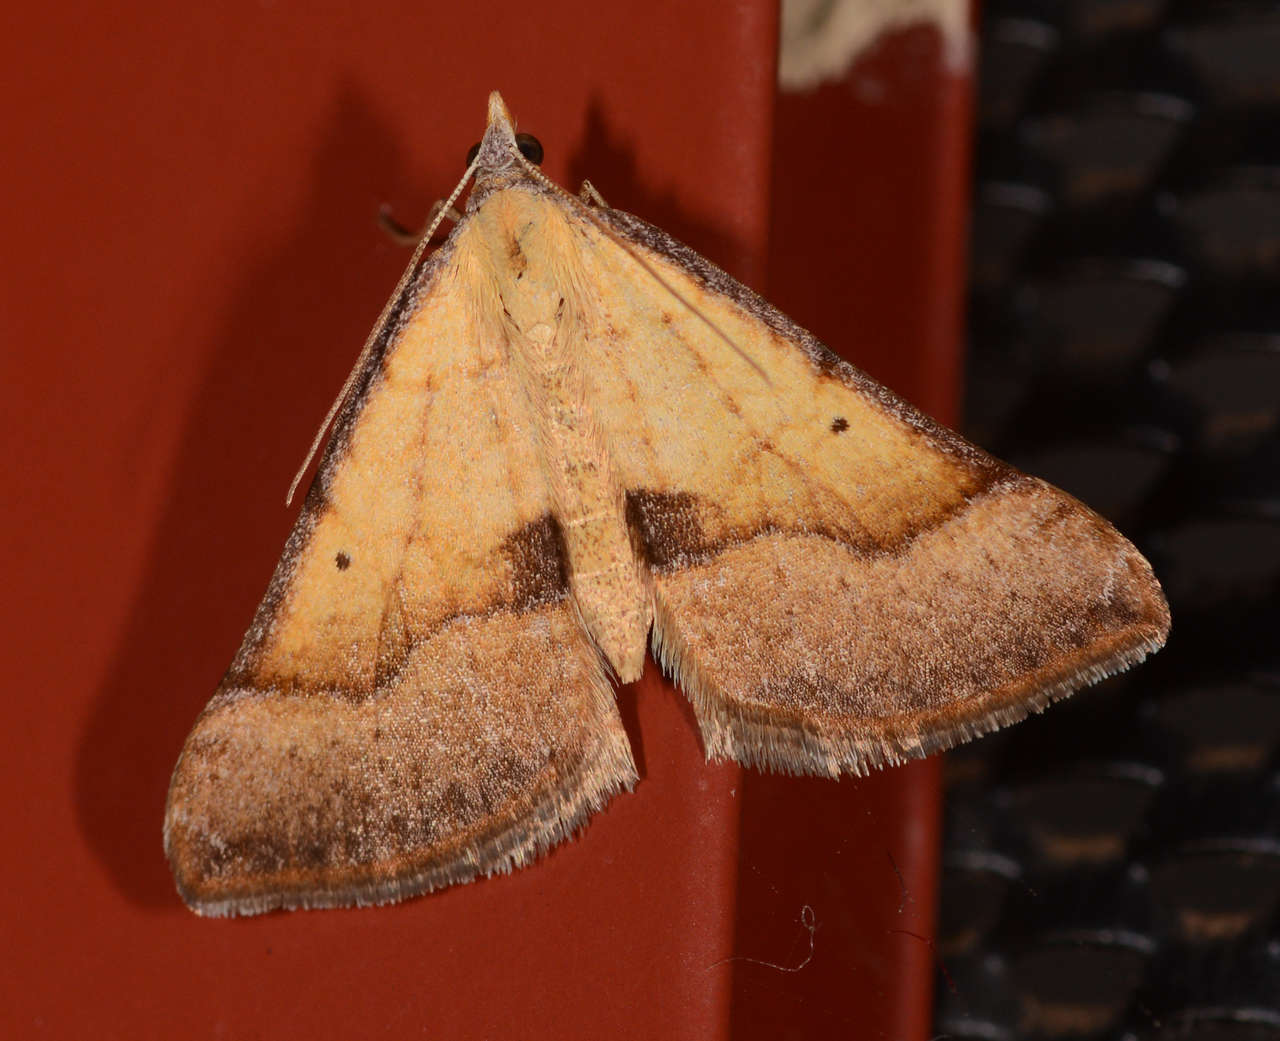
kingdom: Animalia
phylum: Arthropoda
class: Insecta
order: Lepidoptera
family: Geometridae
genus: Anachloris
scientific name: Anachloris subochraria
